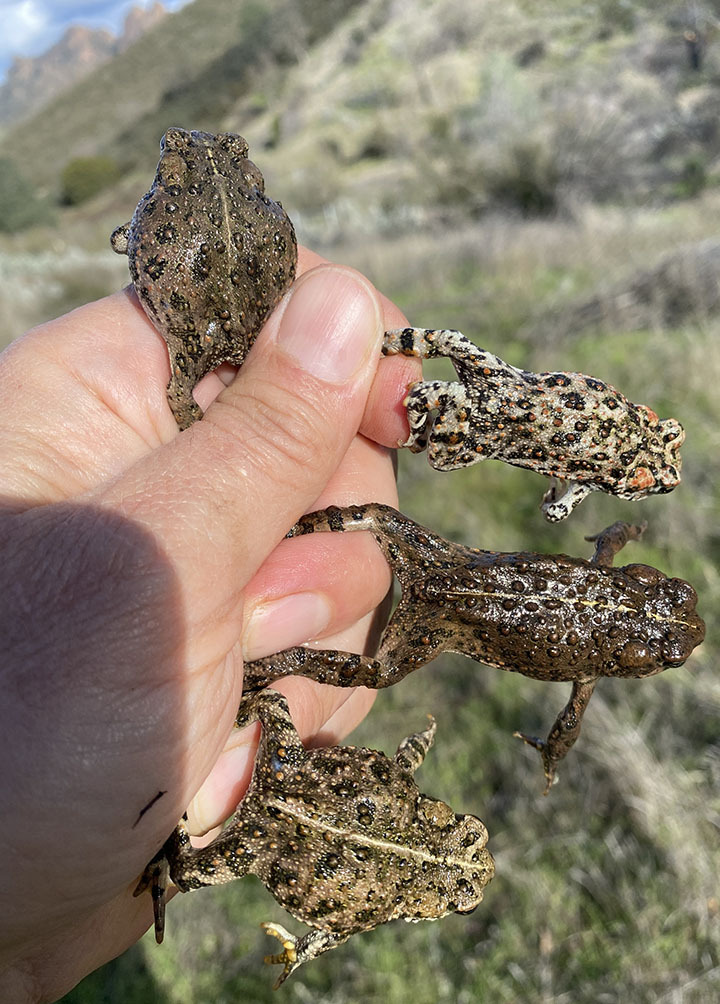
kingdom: Animalia
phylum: Chordata
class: Amphibia
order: Anura
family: Bufonidae
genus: Anaxyrus
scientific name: Anaxyrus boreas
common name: Western toad
